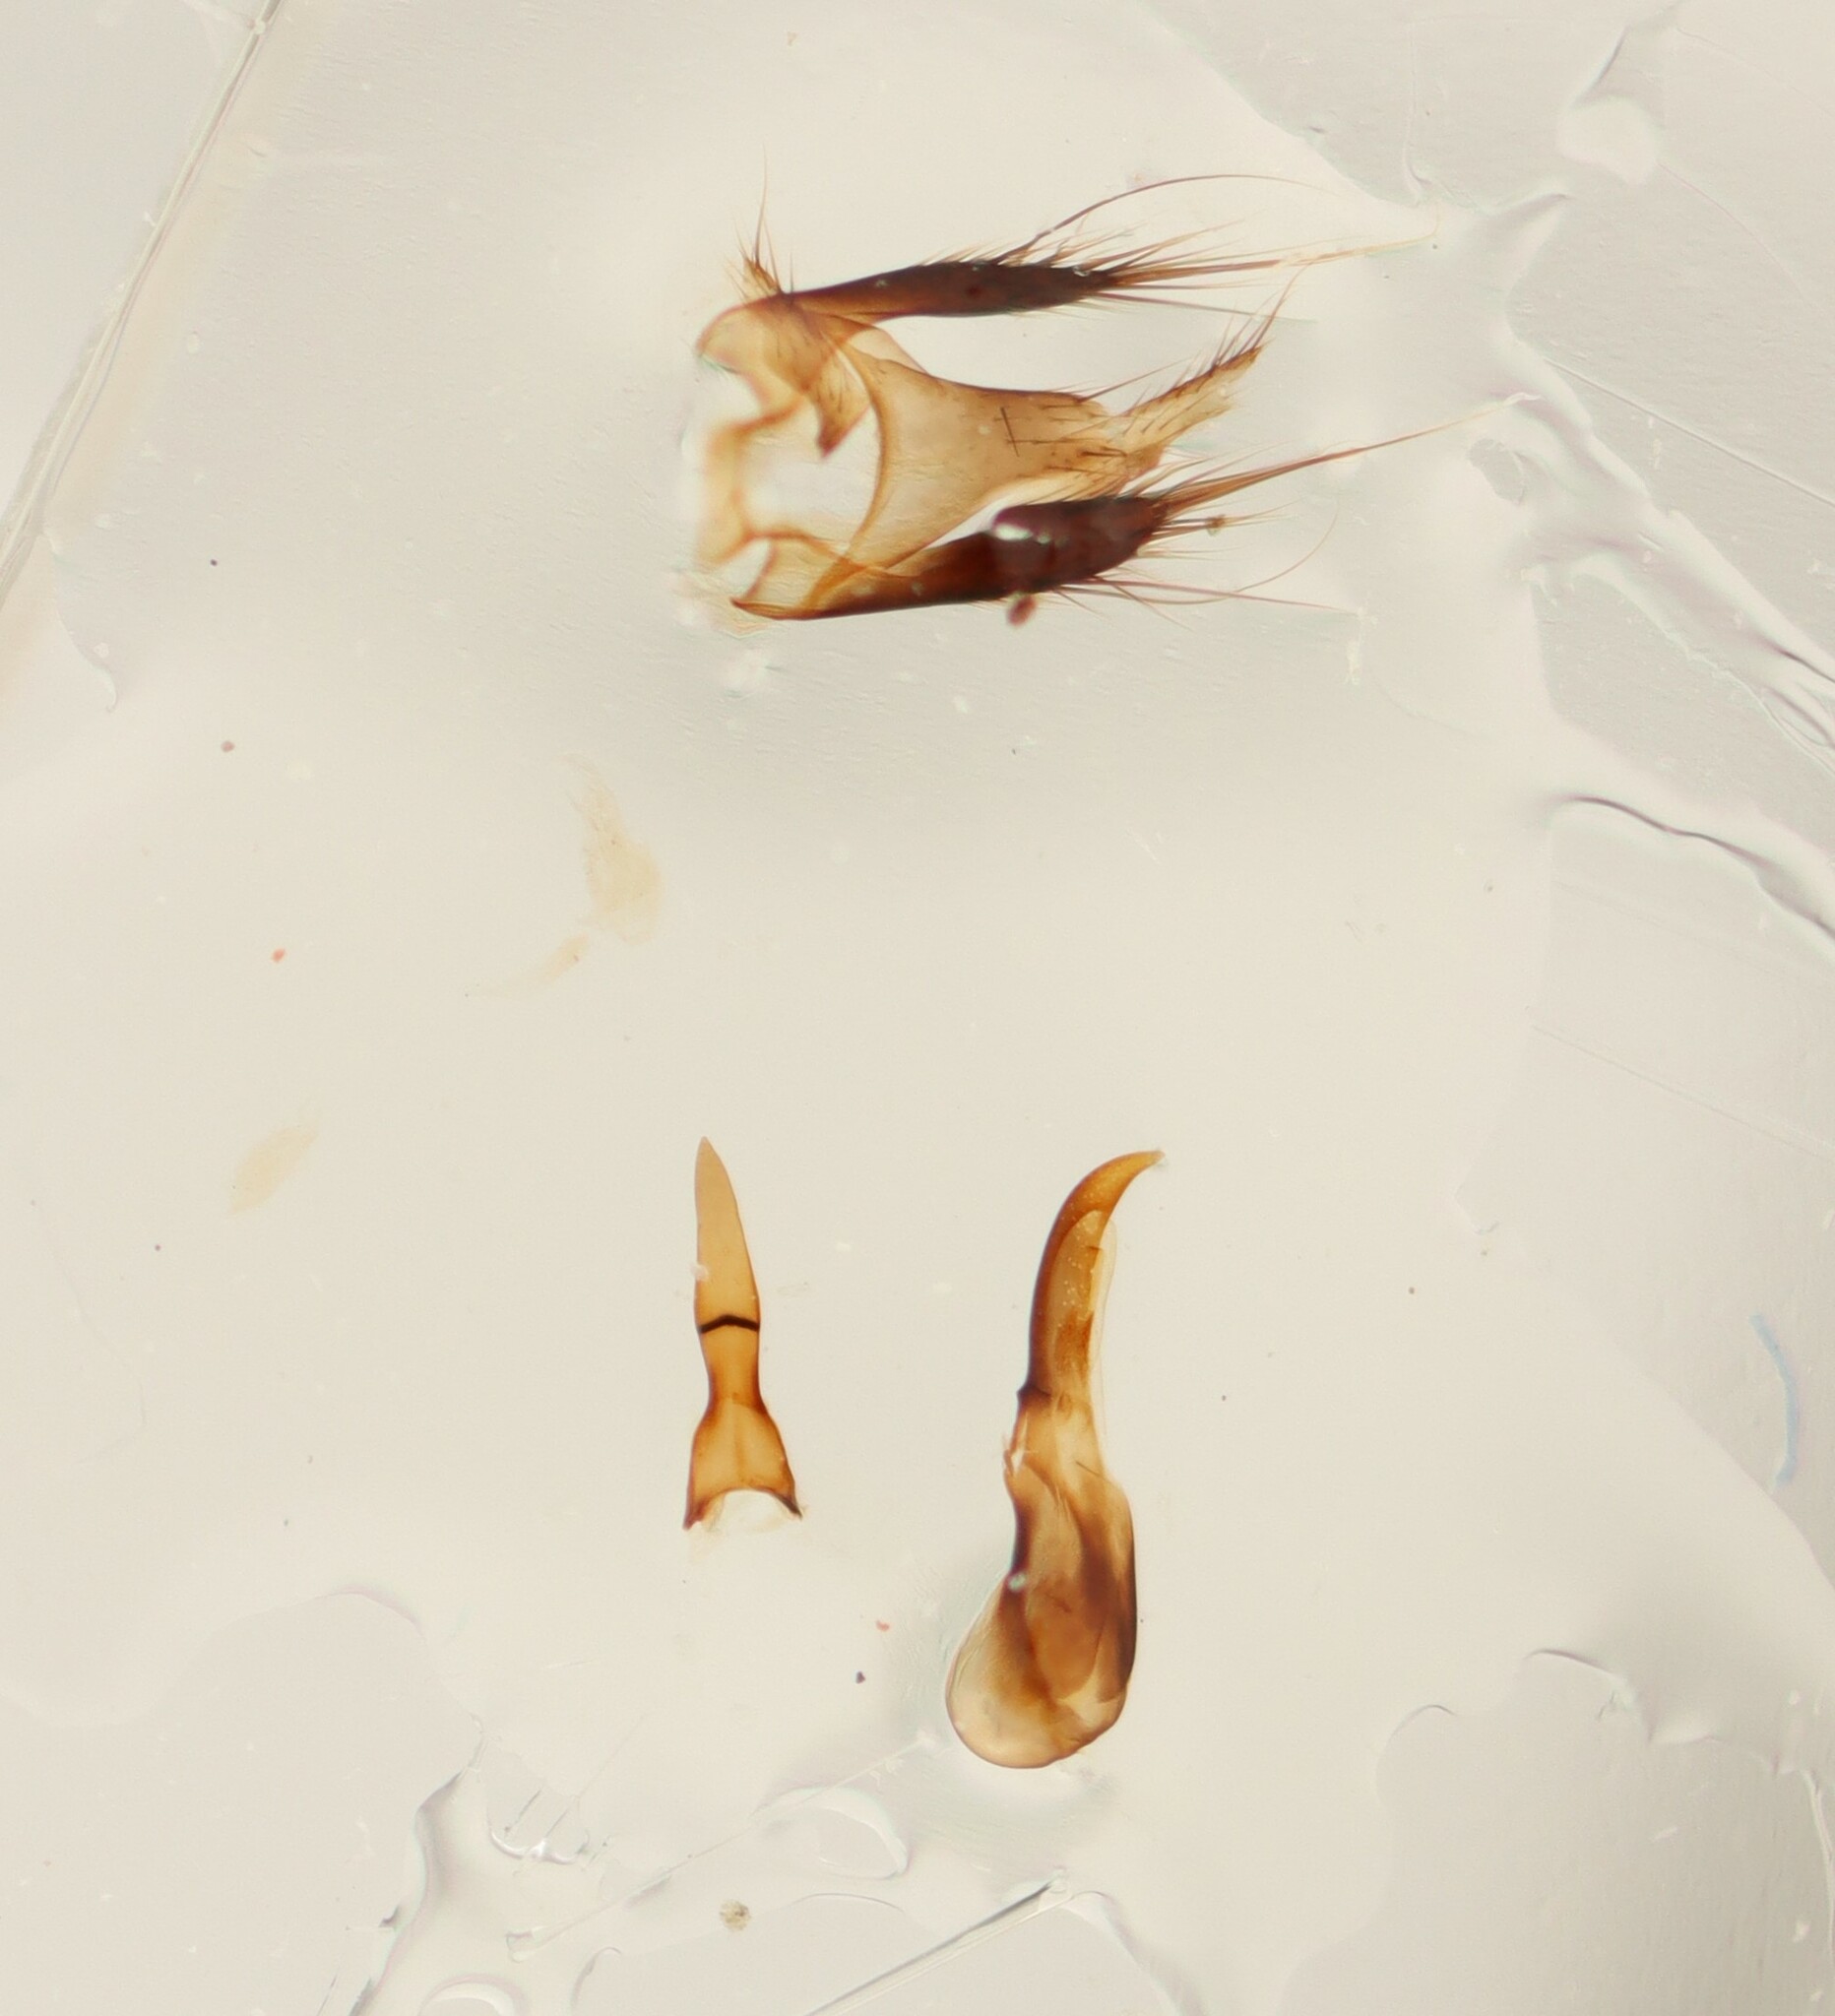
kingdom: Animalia
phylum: Arthropoda
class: Insecta
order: Coleoptera
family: Staphylinidae
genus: Philonthus
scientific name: Philonthus umbratilis
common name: Staph beetle
